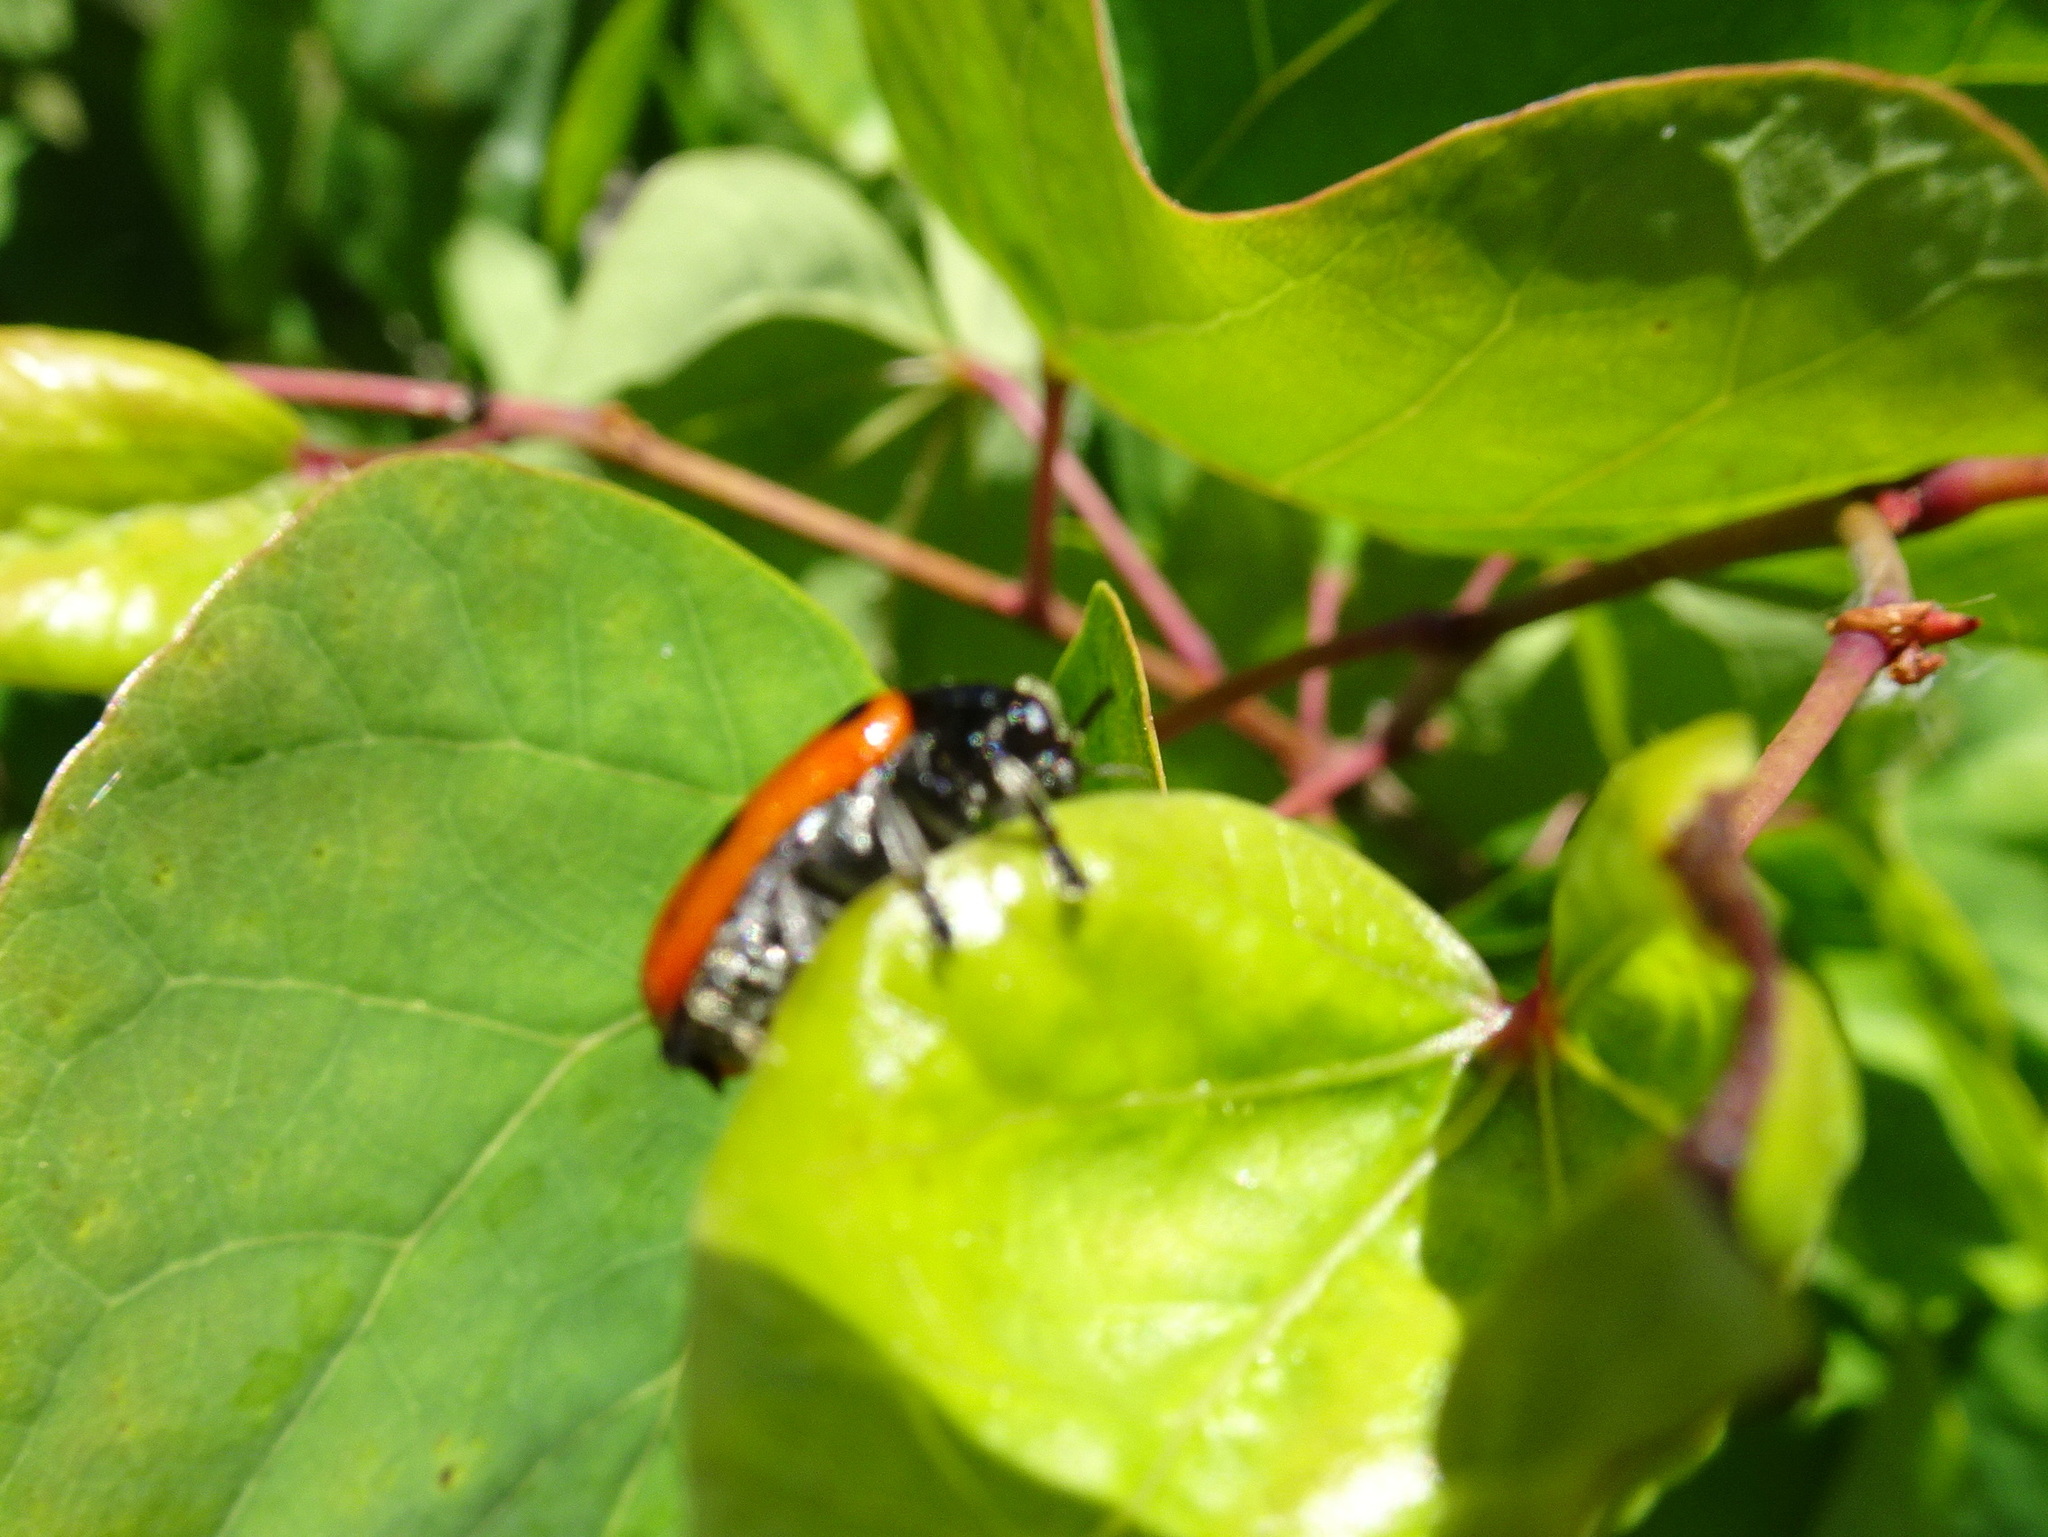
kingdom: Animalia
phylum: Arthropoda
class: Insecta
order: Coleoptera
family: Chrysomelidae
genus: Clytra
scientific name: Clytra
